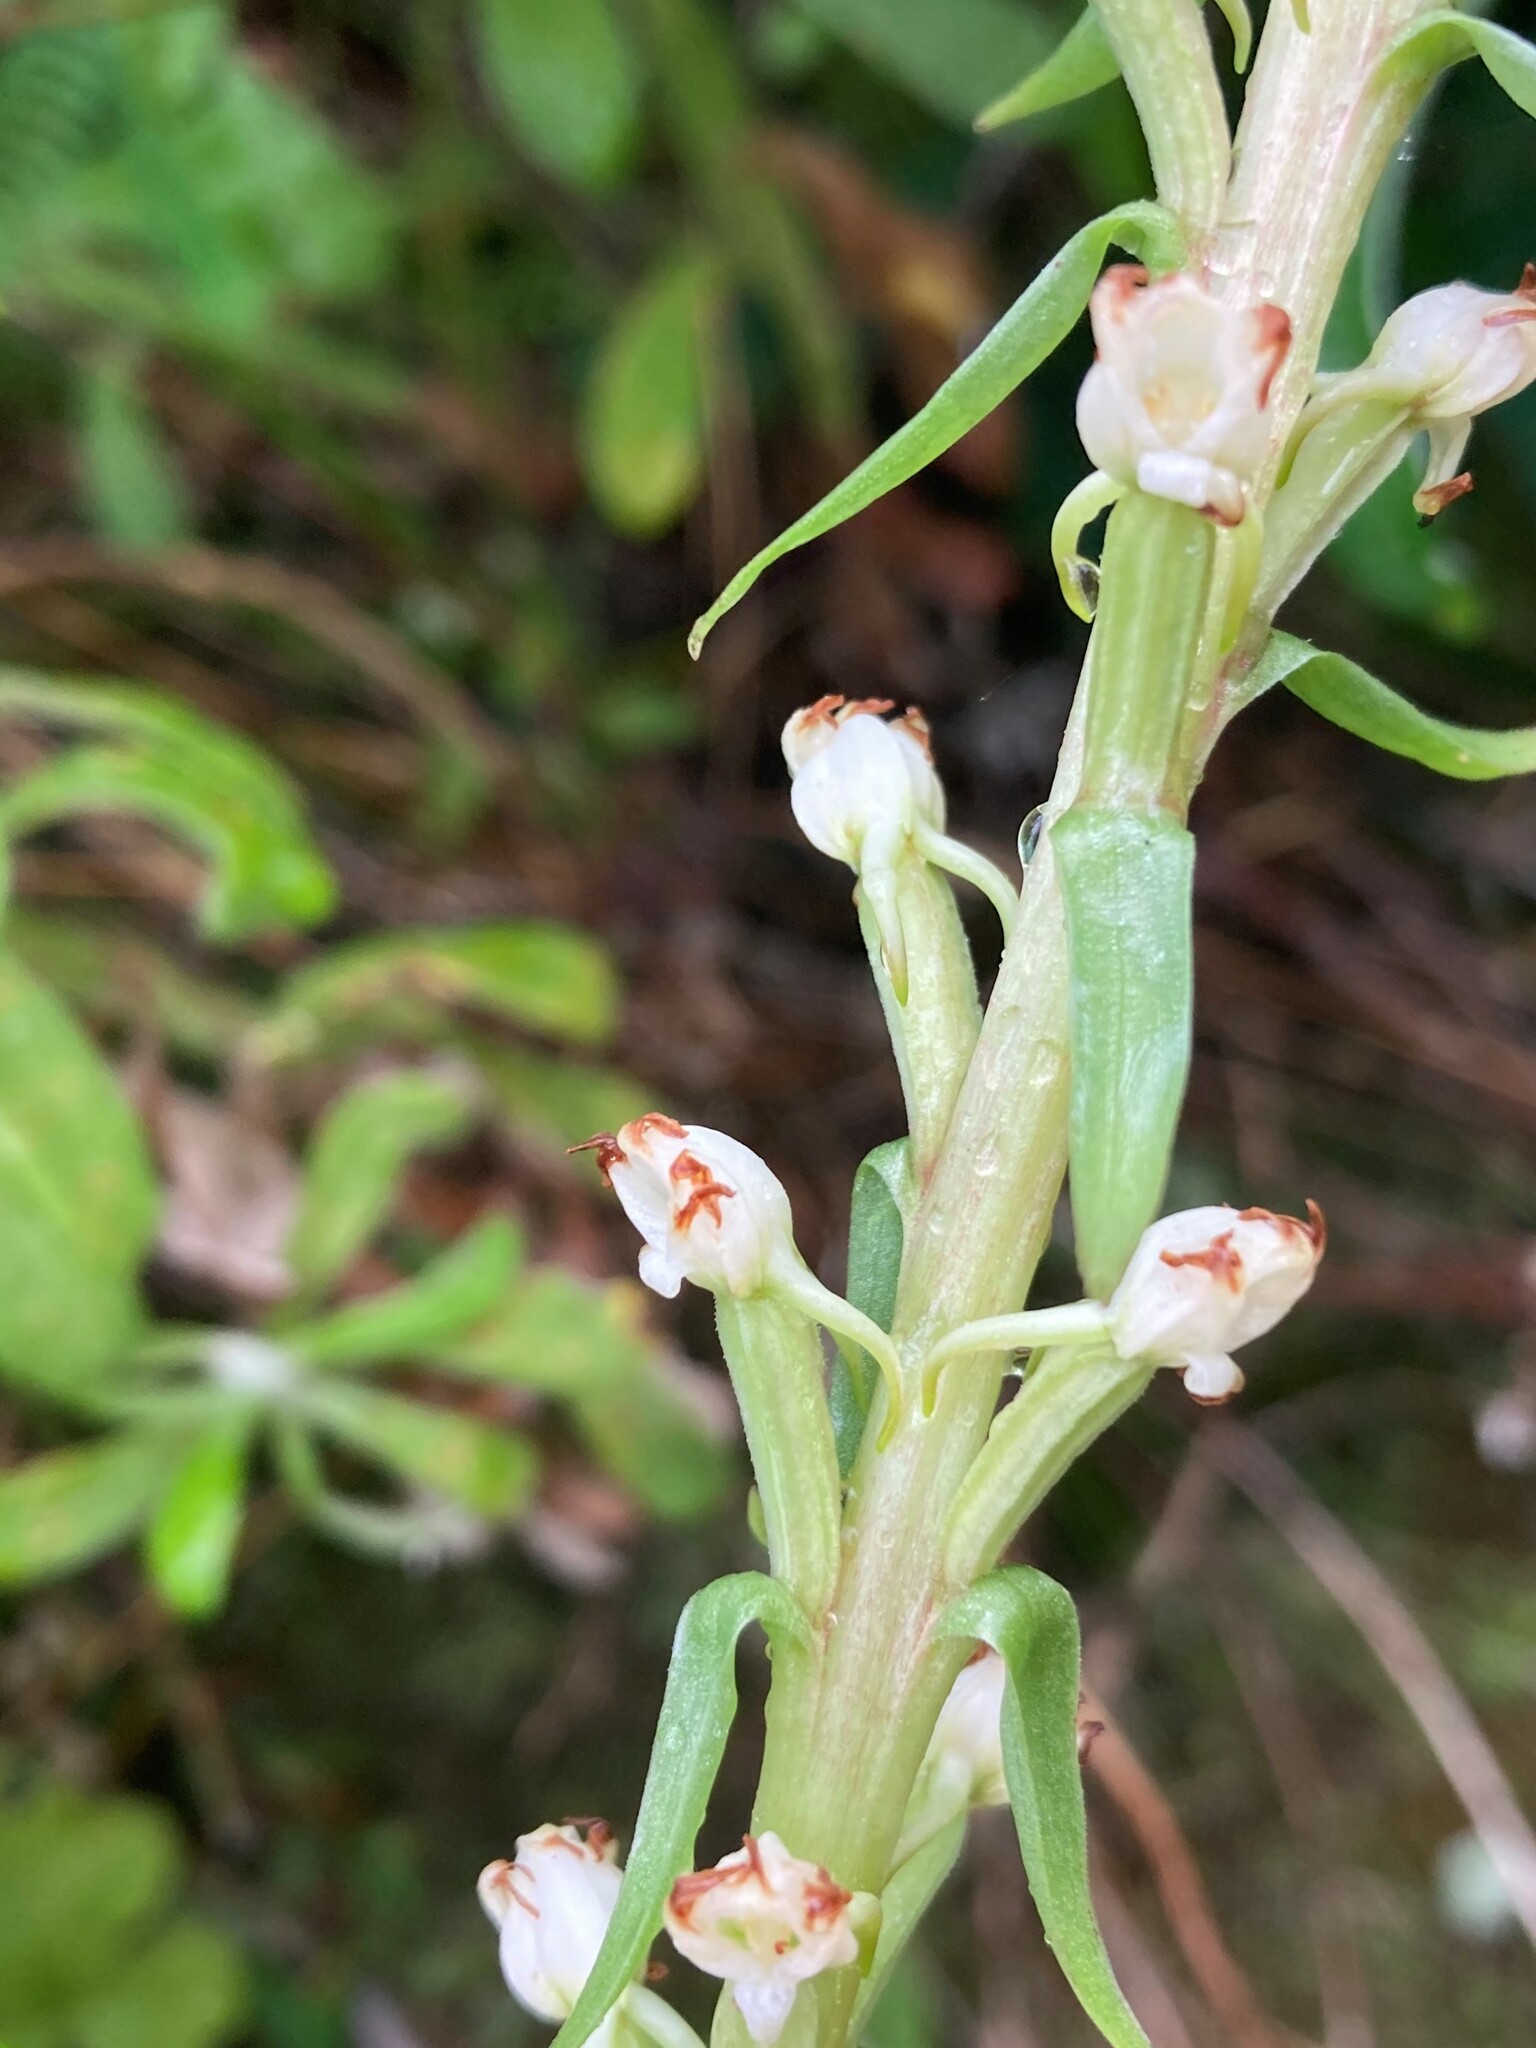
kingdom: Plantae
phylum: Tracheophyta
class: Liliopsida
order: Asparagales
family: Orchidaceae
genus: Satyrium
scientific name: Satyrium ligulatum
